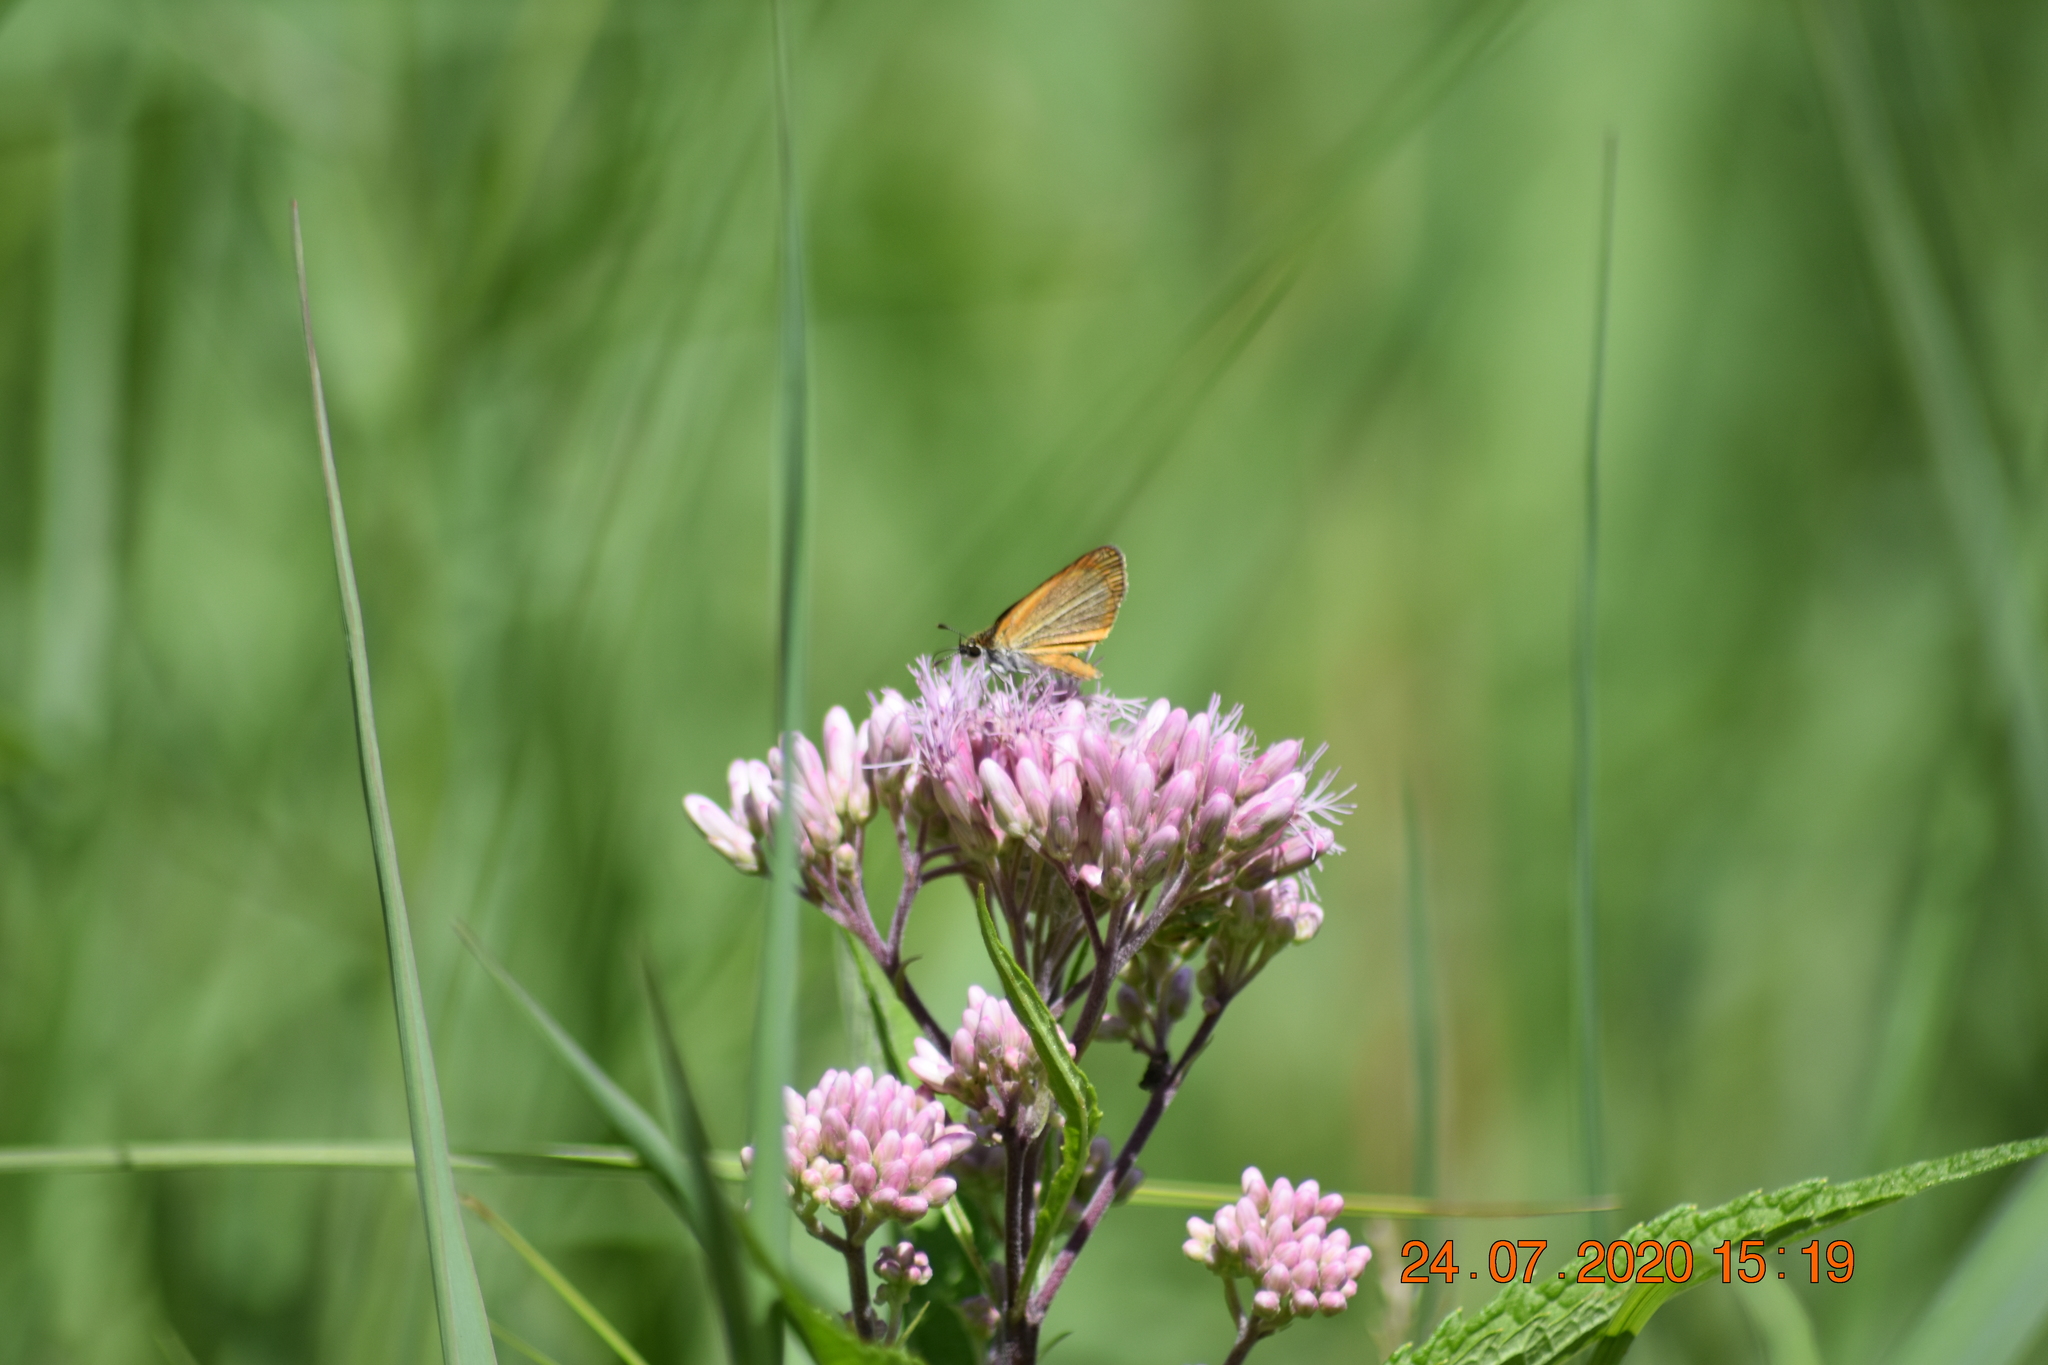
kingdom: Animalia
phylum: Arthropoda
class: Insecta
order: Lepidoptera
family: Hesperiidae
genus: Ancyloxypha
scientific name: Ancyloxypha numitor
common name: Least skipper
